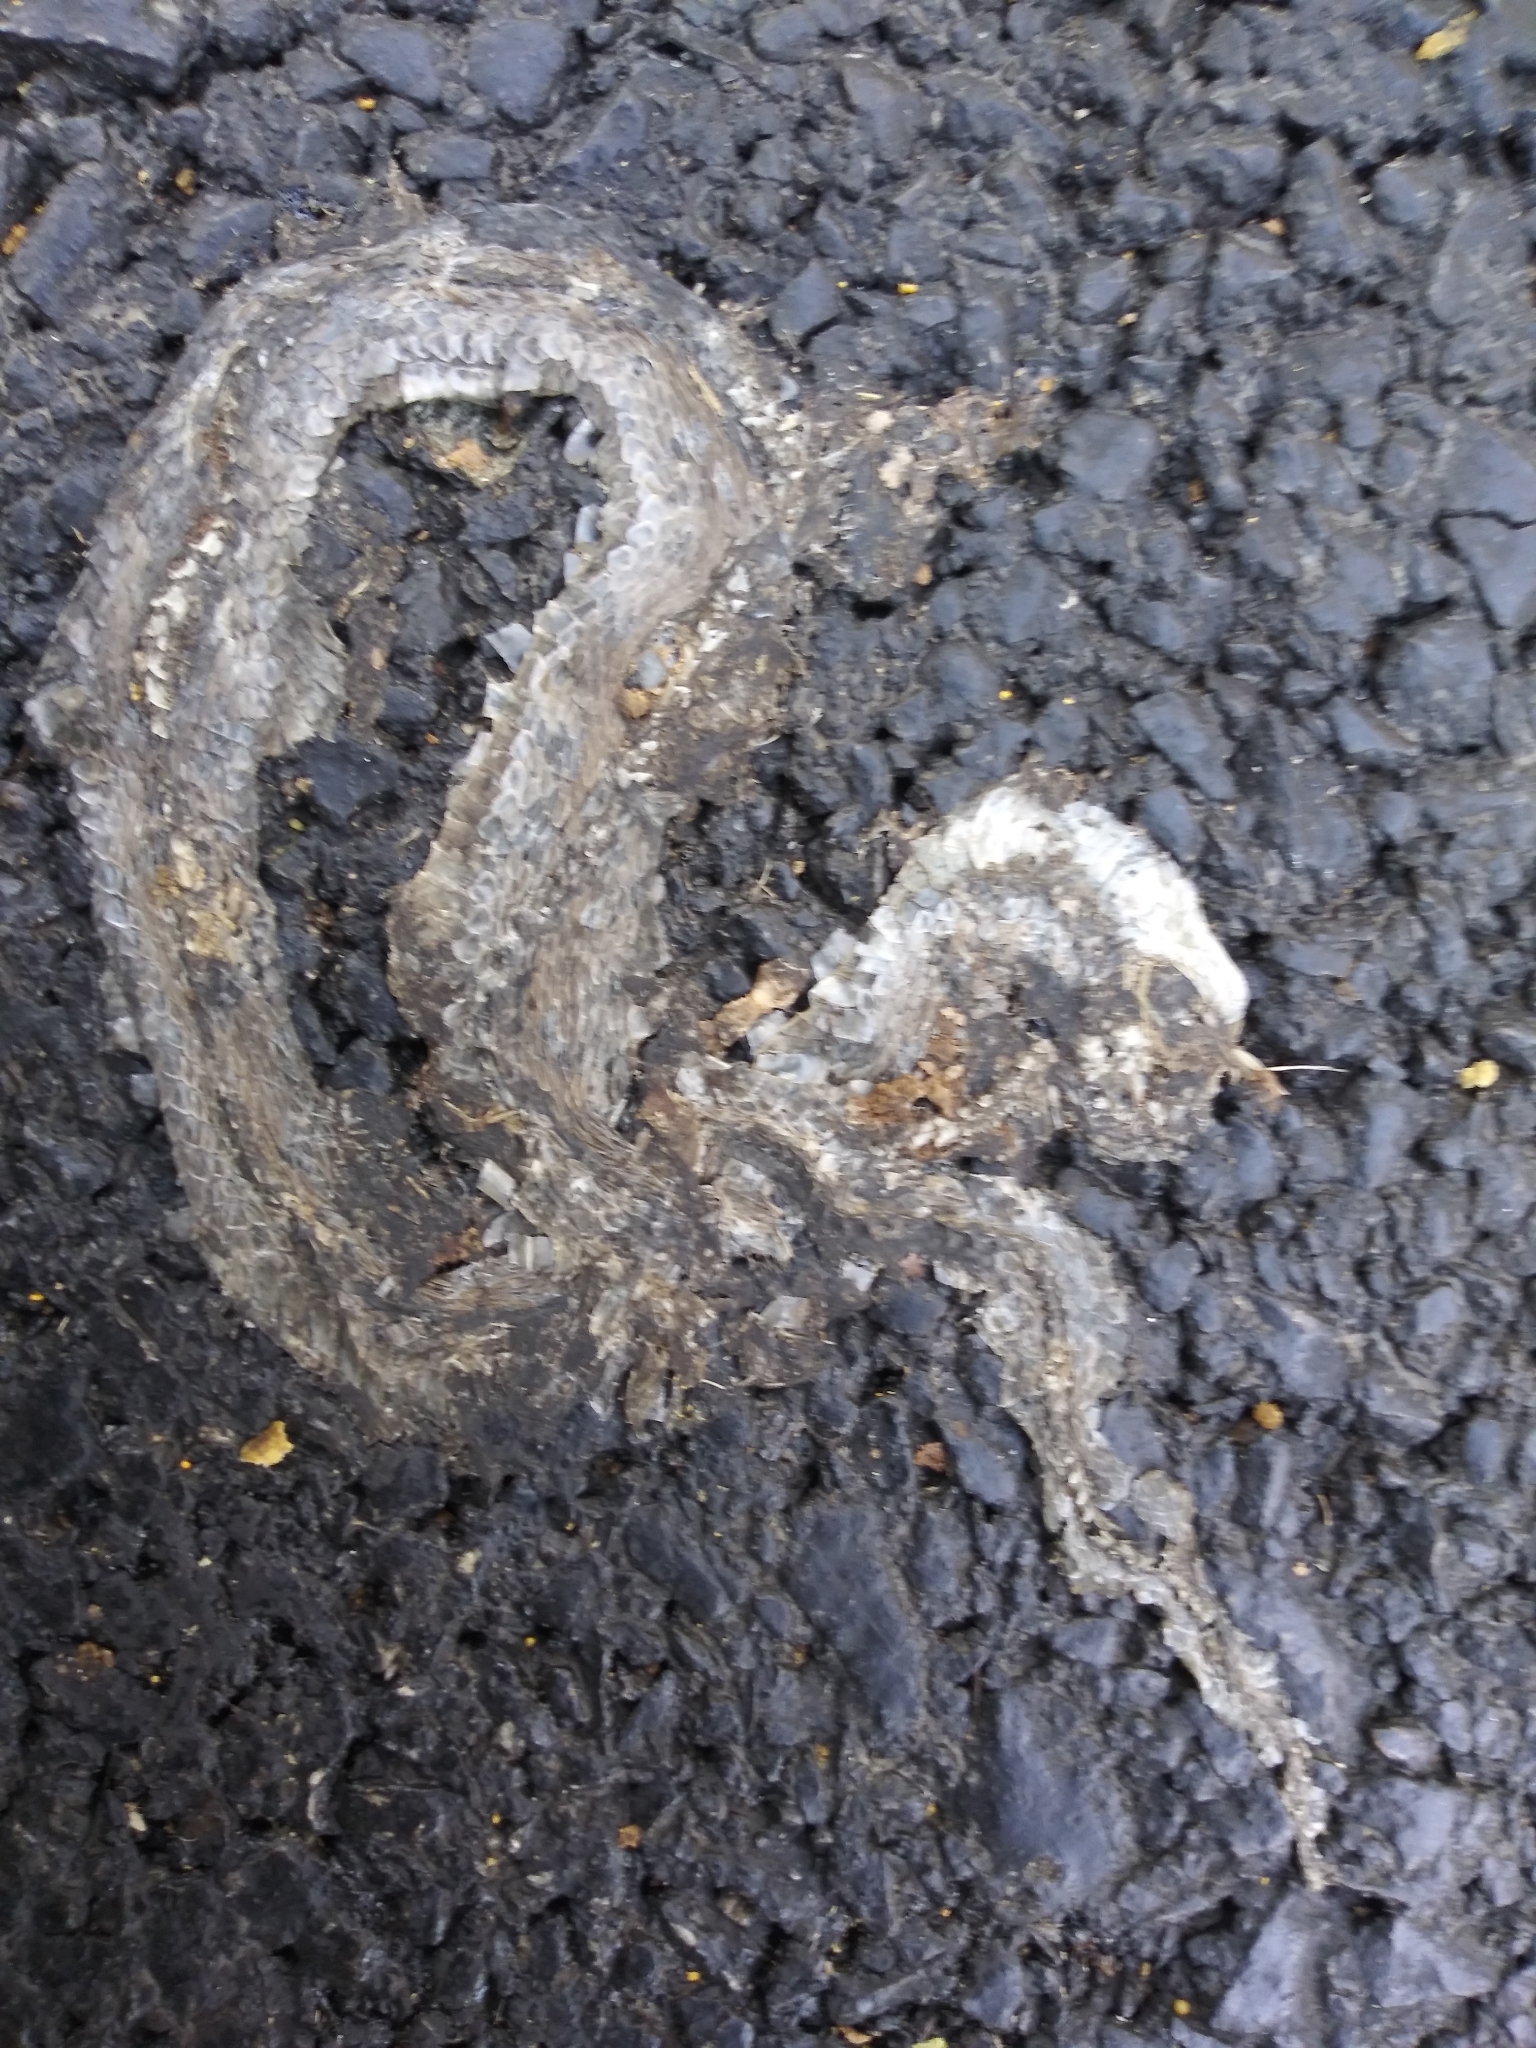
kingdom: Animalia
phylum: Chordata
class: Squamata
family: Colubridae
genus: Storeria
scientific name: Storeria dekayi
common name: (dekay’s) brown snake
